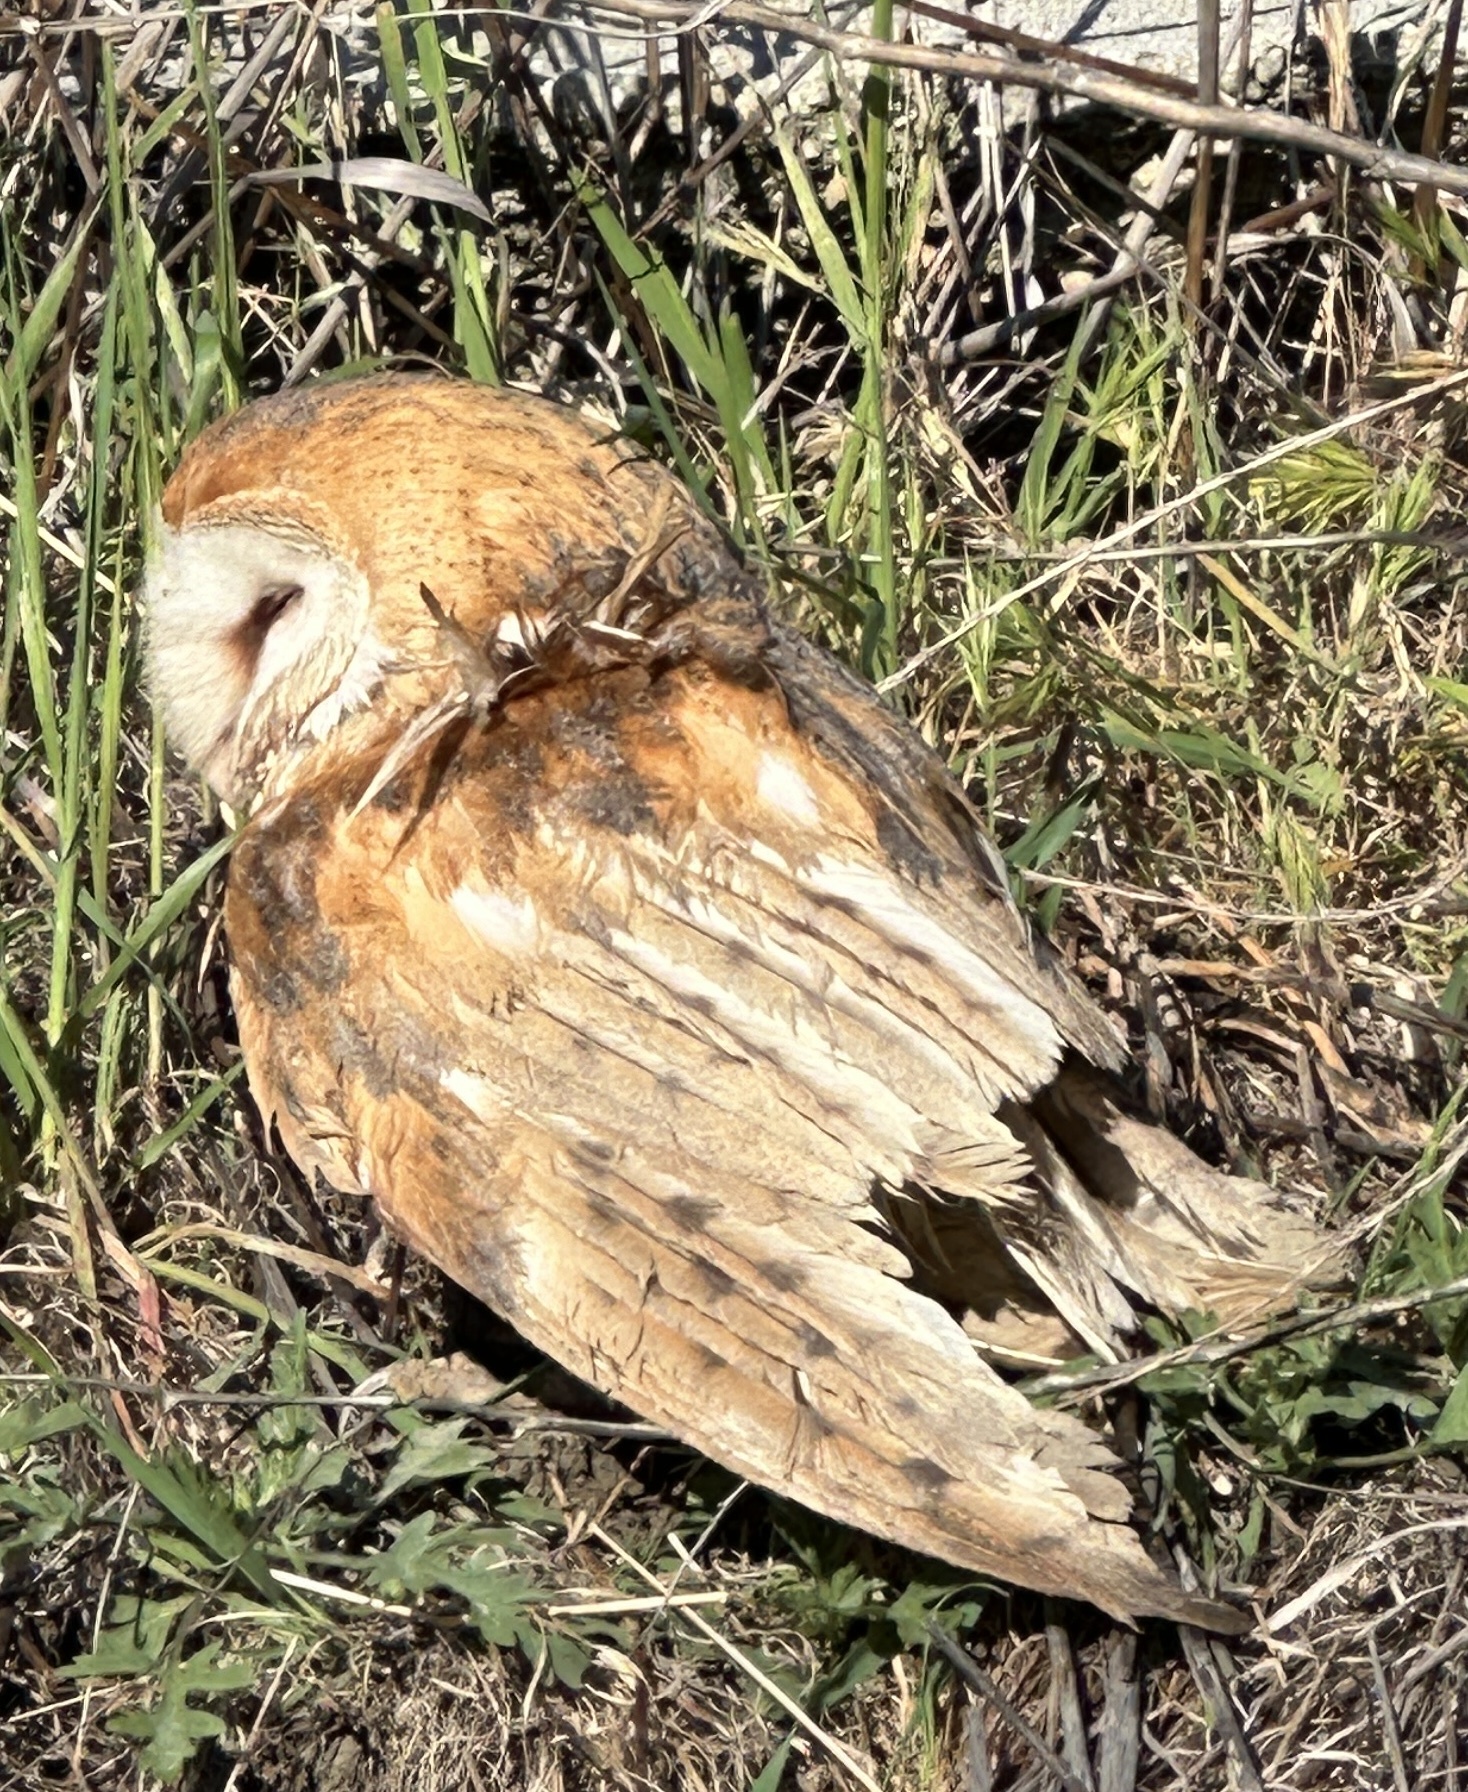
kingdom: Animalia
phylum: Chordata
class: Aves
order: Strigiformes
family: Tytonidae
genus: Tyto
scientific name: Tyto alba
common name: Barn owl
